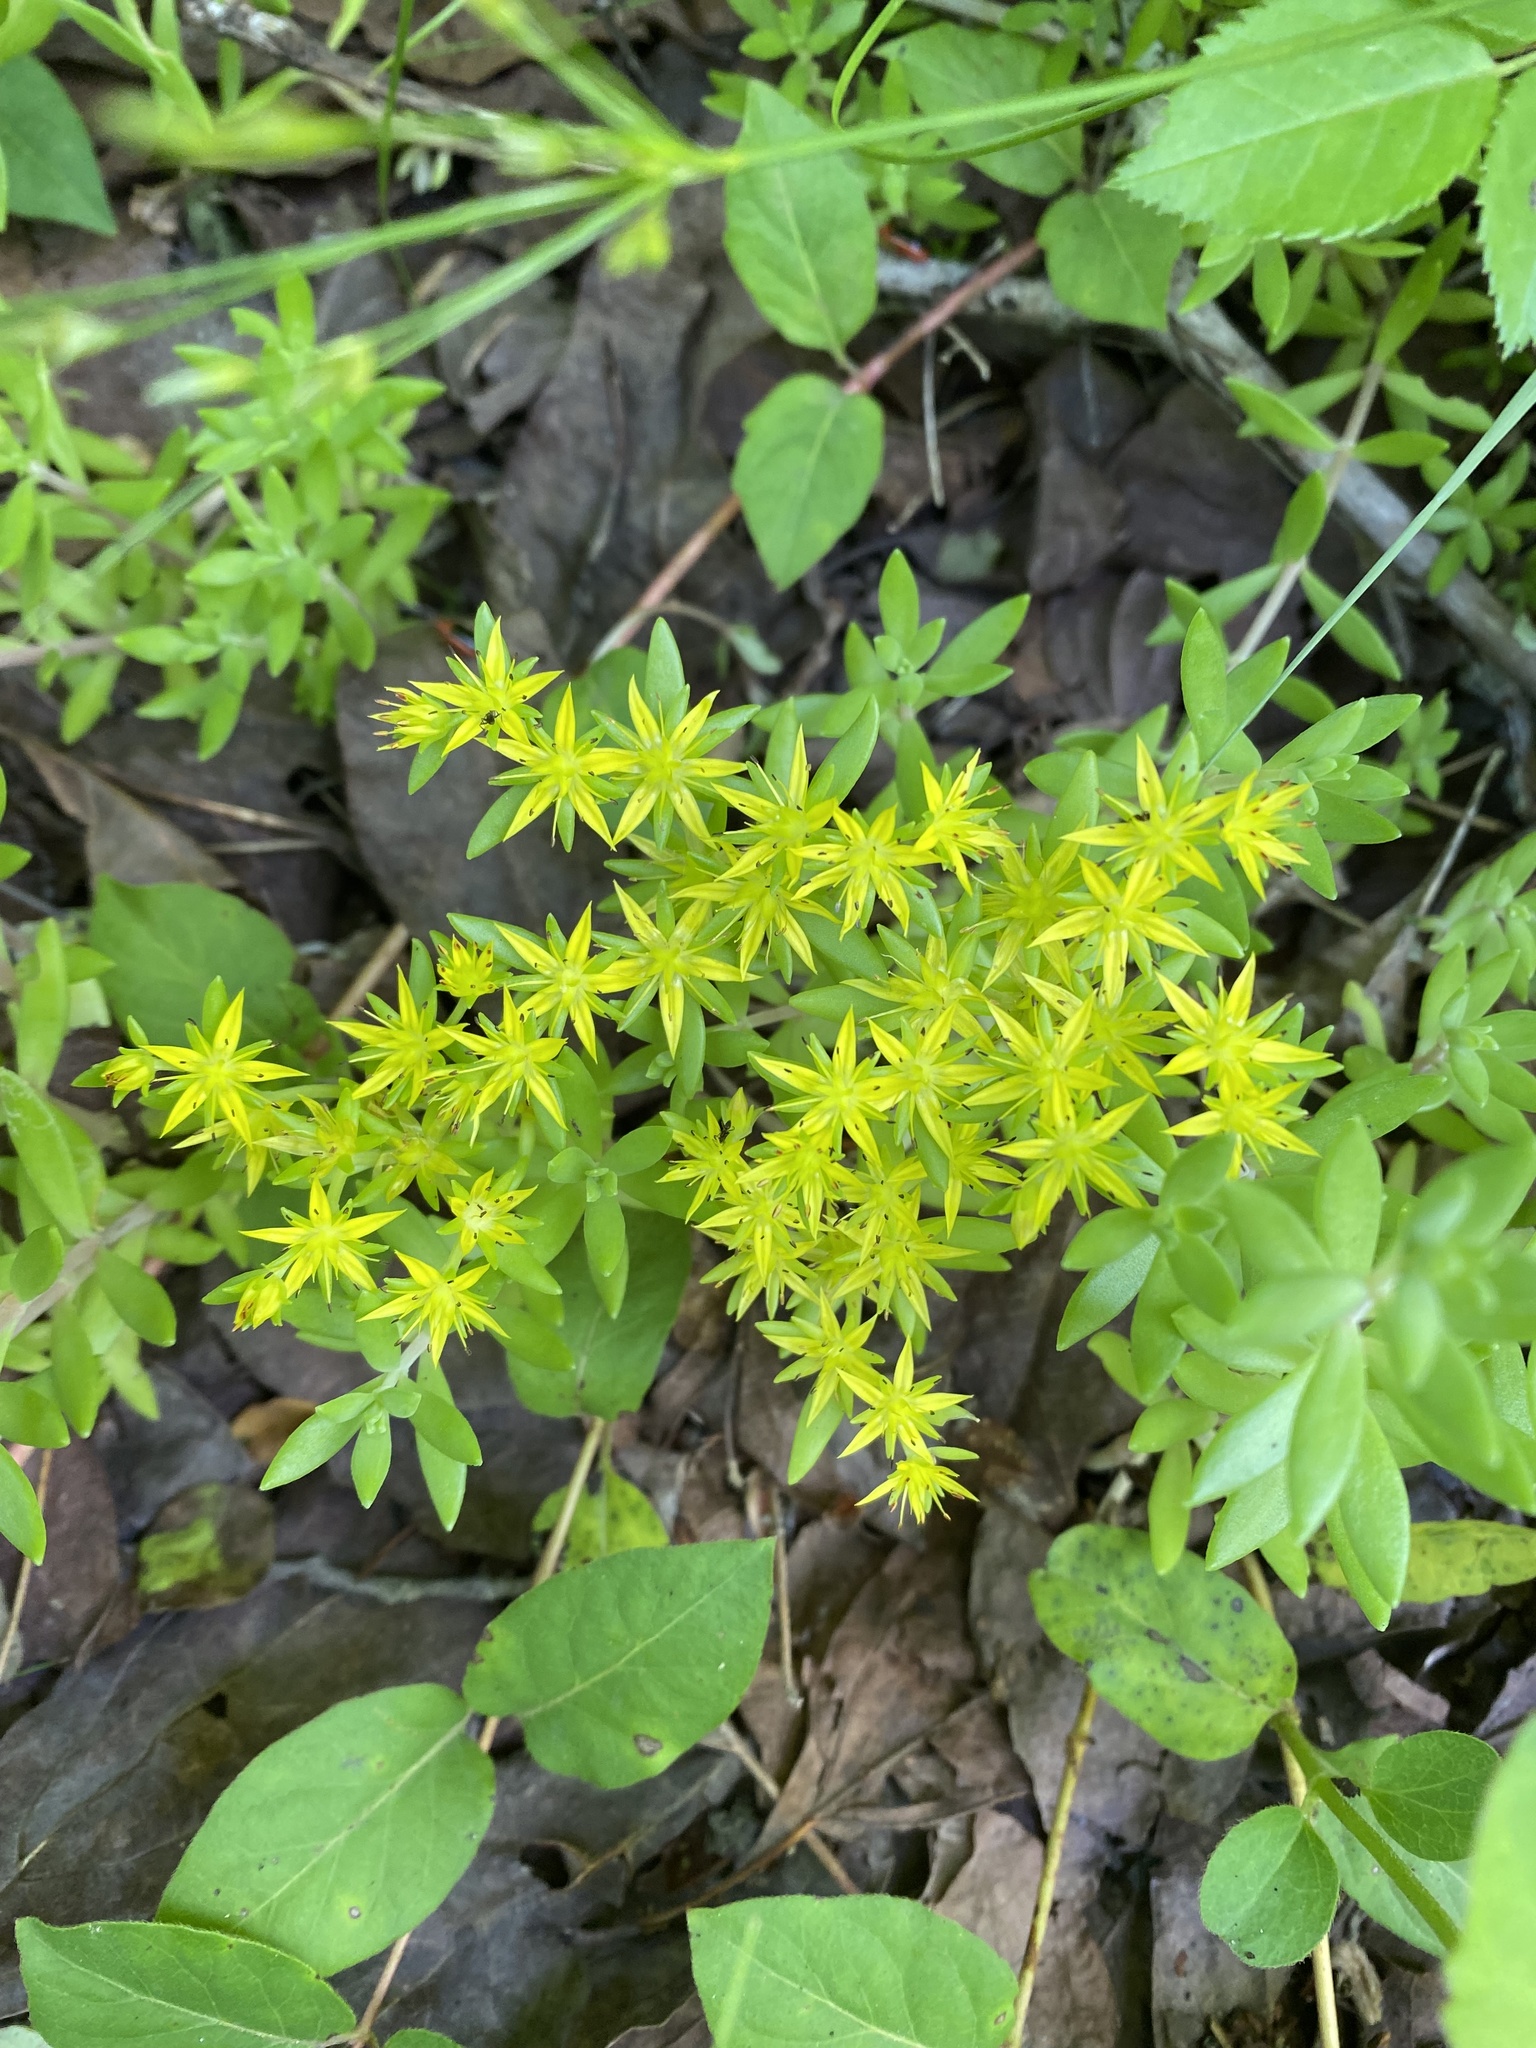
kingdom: Plantae
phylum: Tracheophyta
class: Magnoliopsida
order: Saxifragales
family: Crassulaceae
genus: Sedum
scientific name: Sedum sarmentosum
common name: Stringy stonecrop
